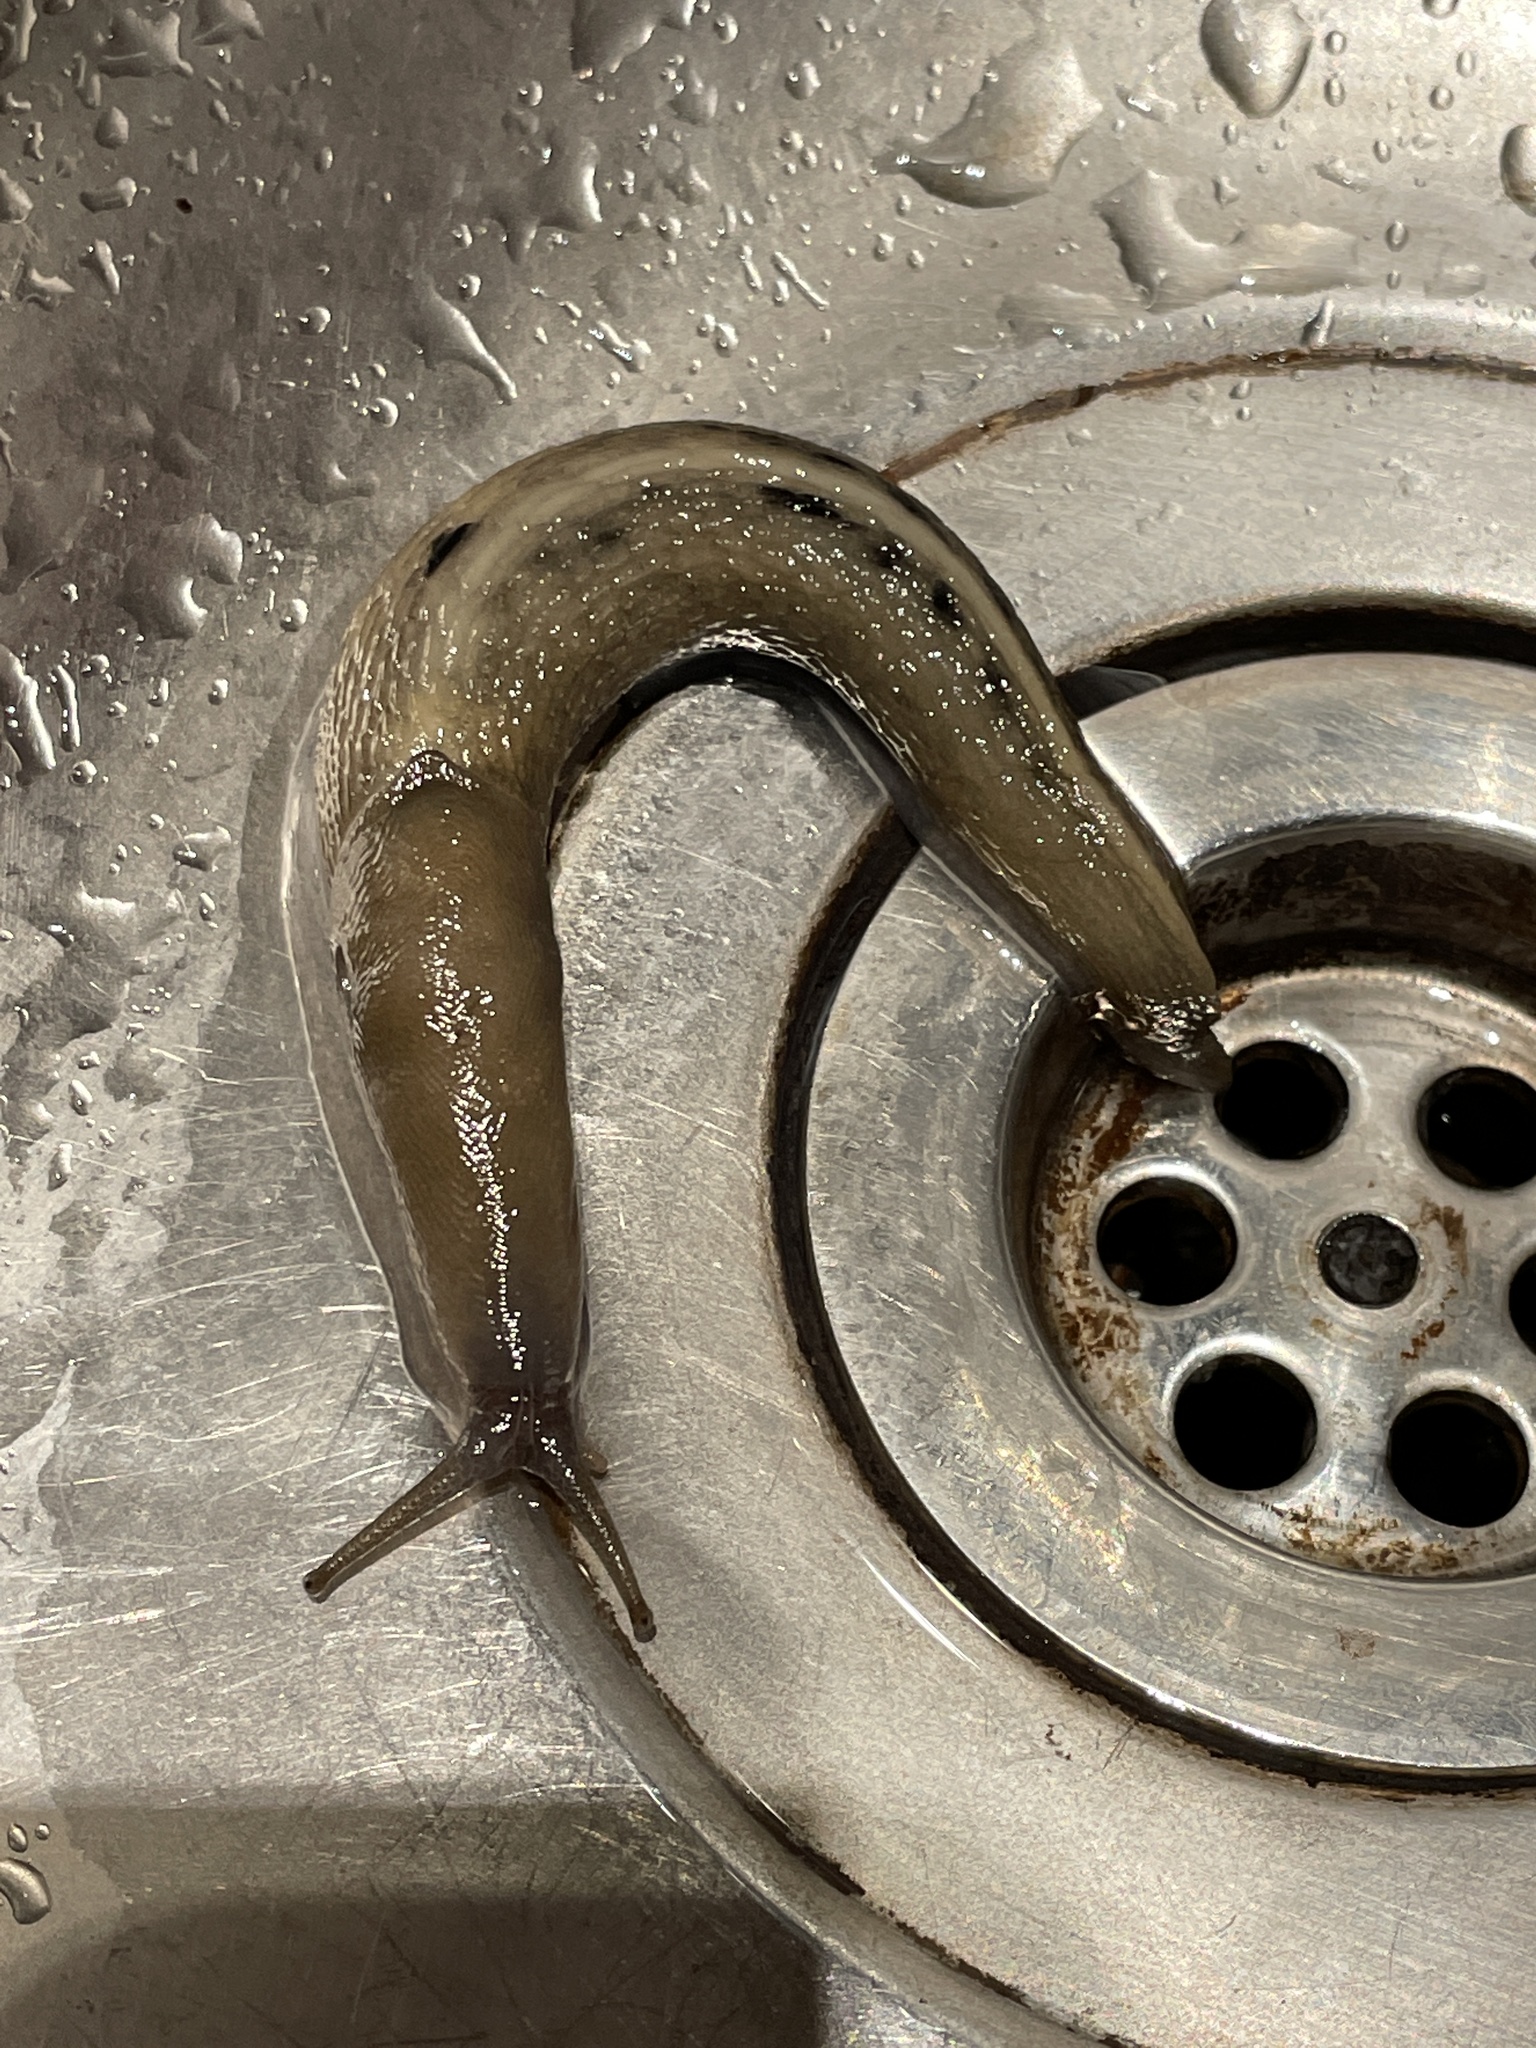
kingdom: Animalia
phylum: Mollusca
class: Gastropoda
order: Stylommatophora
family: Limacidae
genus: Limax
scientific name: Limax cinereoniger
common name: Ash-black slug
